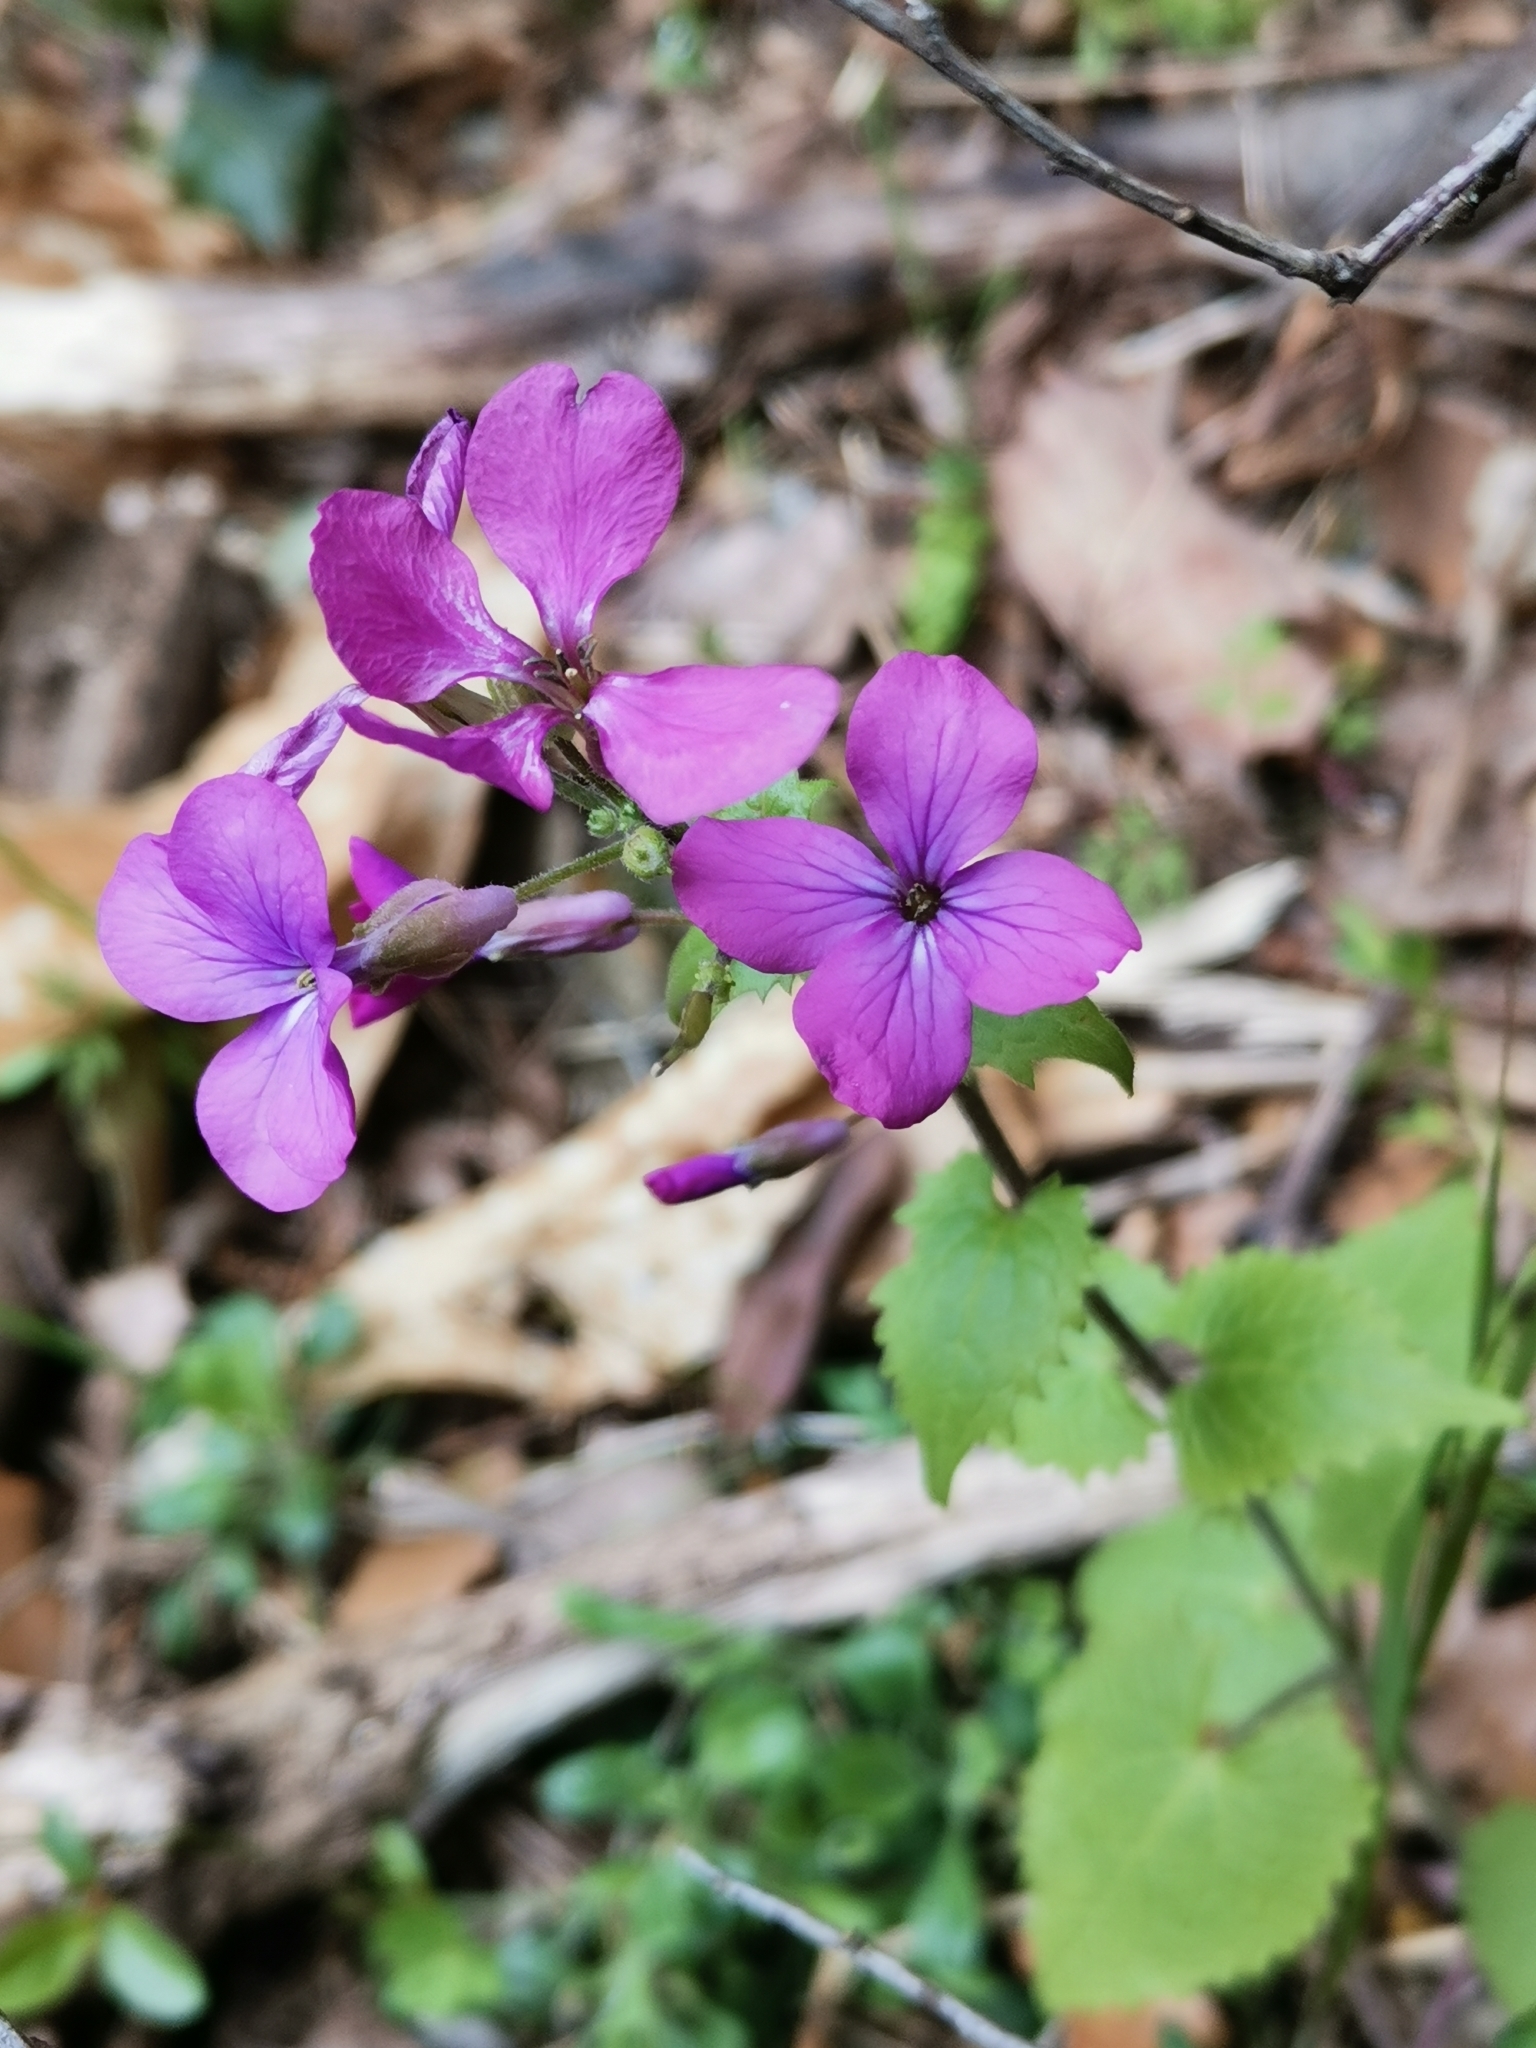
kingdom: Plantae
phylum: Tracheophyta
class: Magnoliopsida
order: Brassicales
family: Brassicaceae
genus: Lunaria
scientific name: Lunaria annua
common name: Honesty
